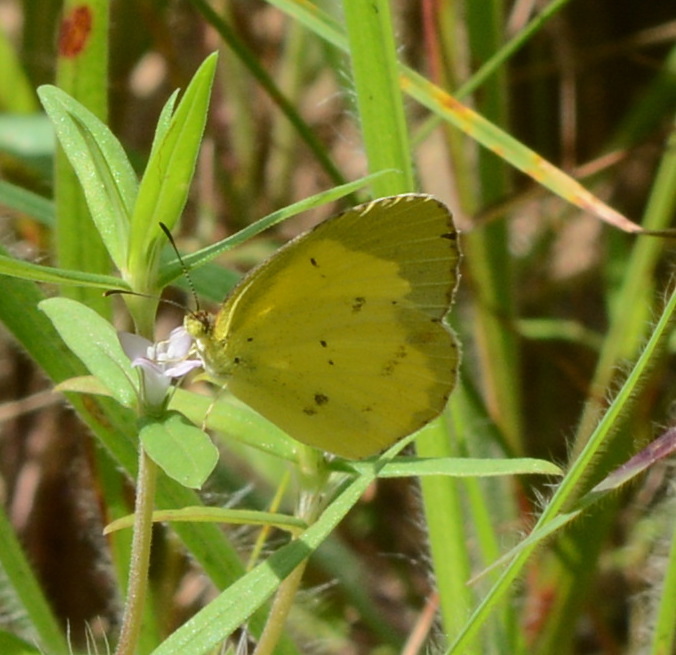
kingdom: Animalia
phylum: Arthropoda
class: Insecta
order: Lepidoptera
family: Pieridae
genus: Pyrisitia
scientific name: Pyrisitia lisa
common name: Little yellow
